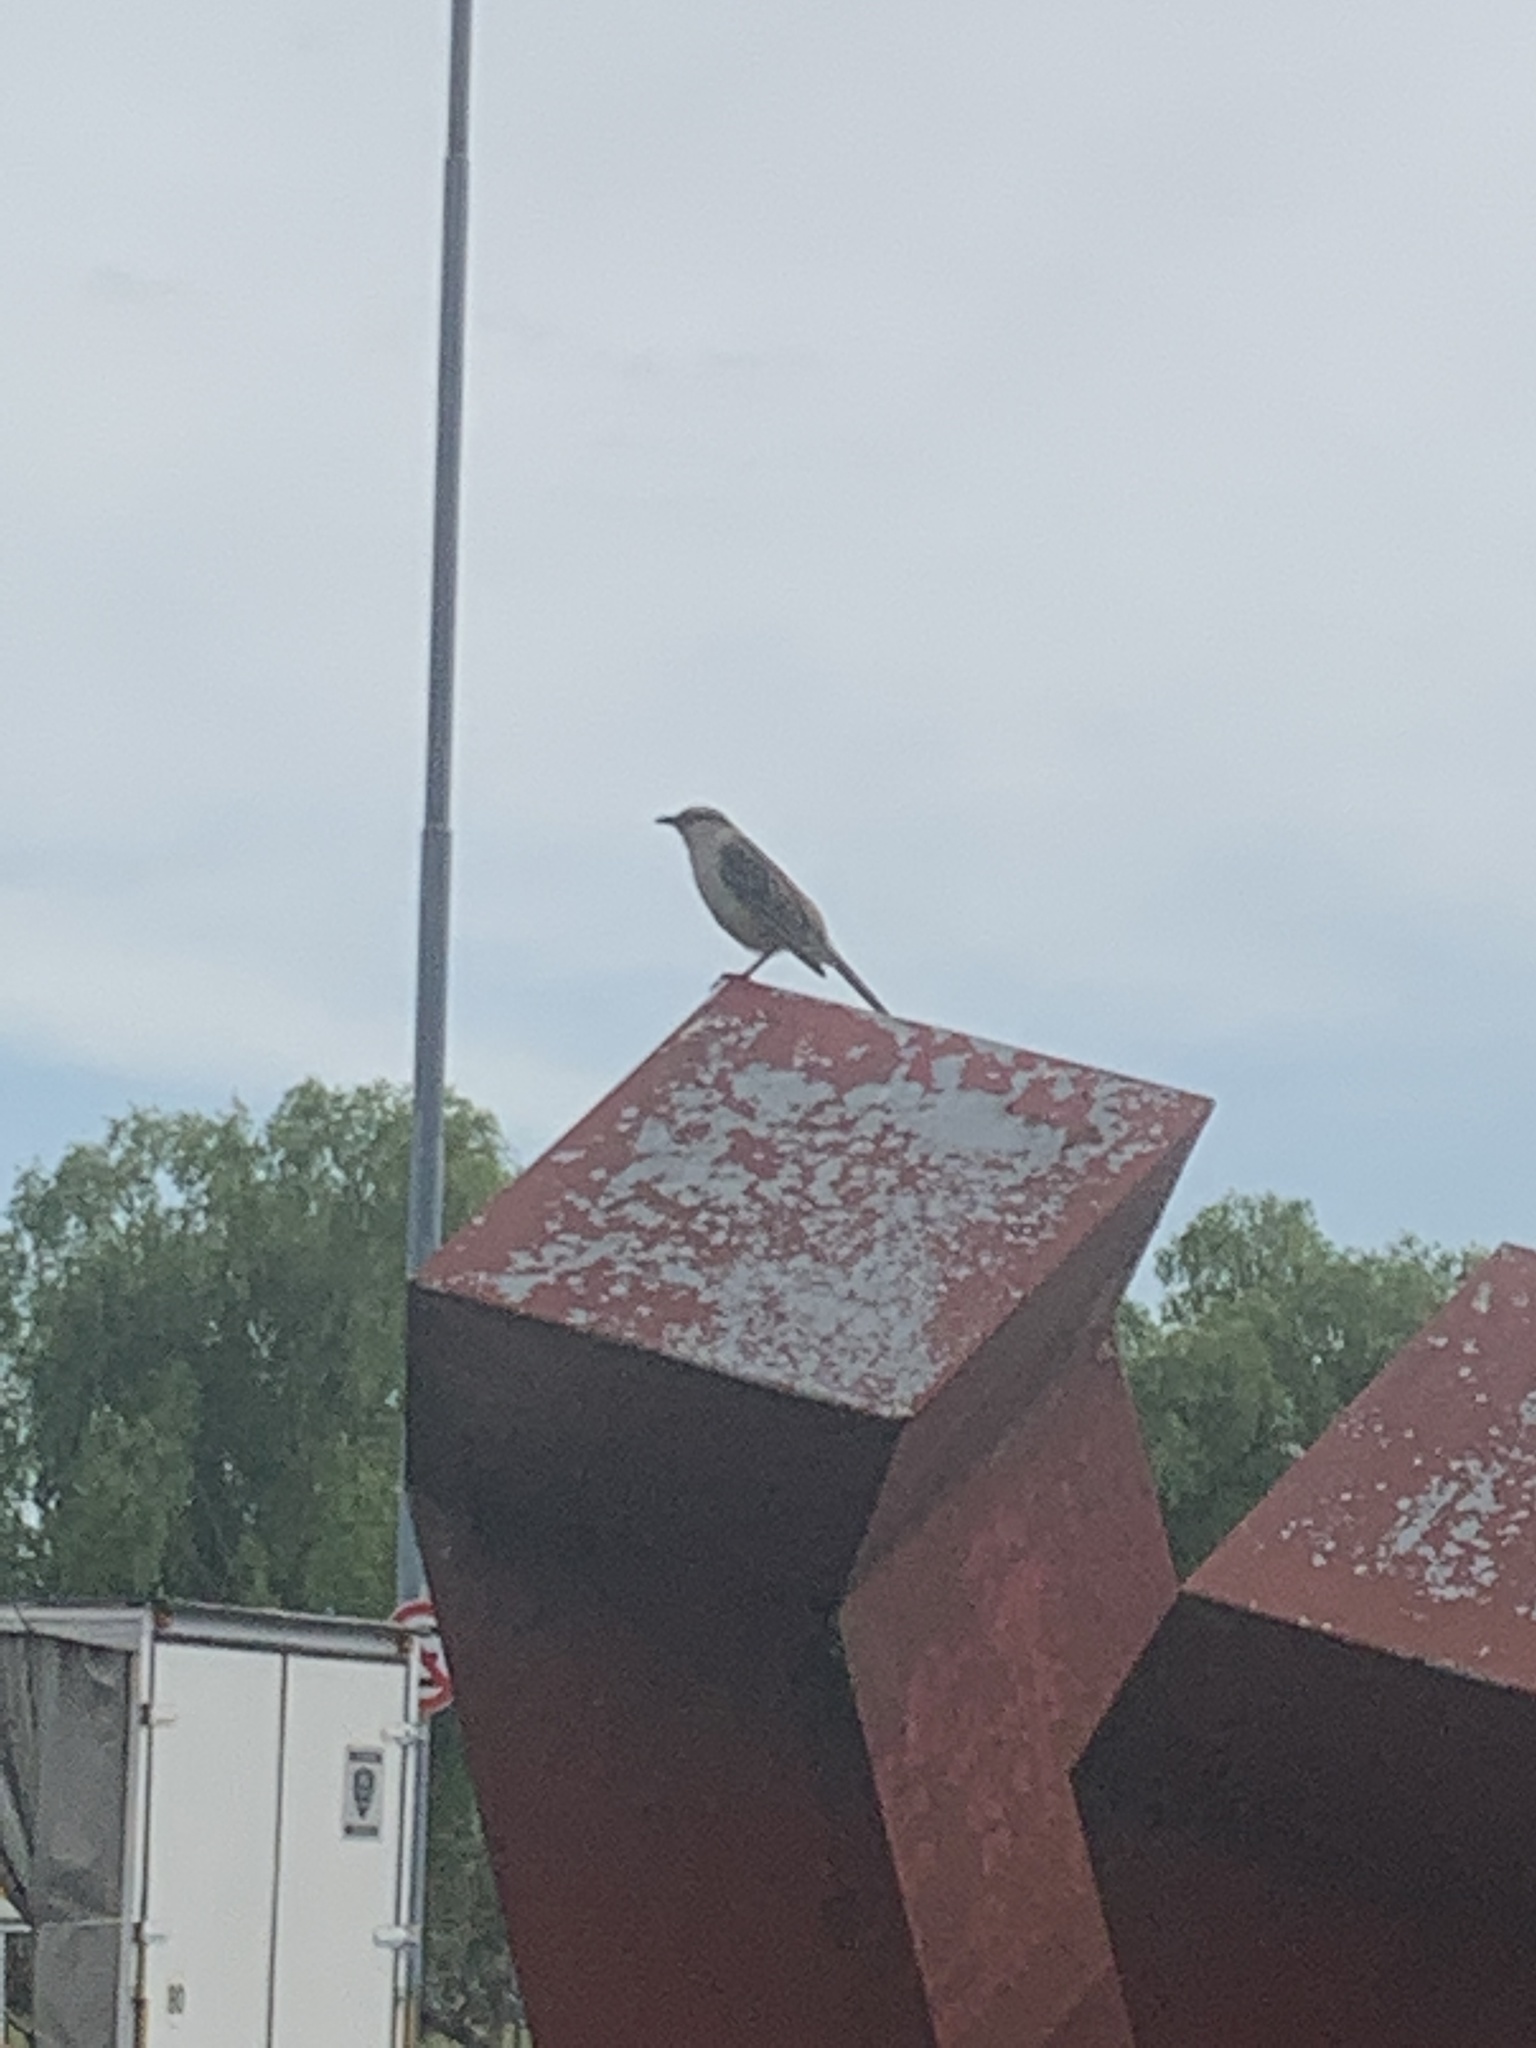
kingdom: Animalia
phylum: Chordata
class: Aves
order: Passeriformes
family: Mimidae
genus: Mimus
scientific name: Mimus saturninus
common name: Chalk-browed mockingbird
